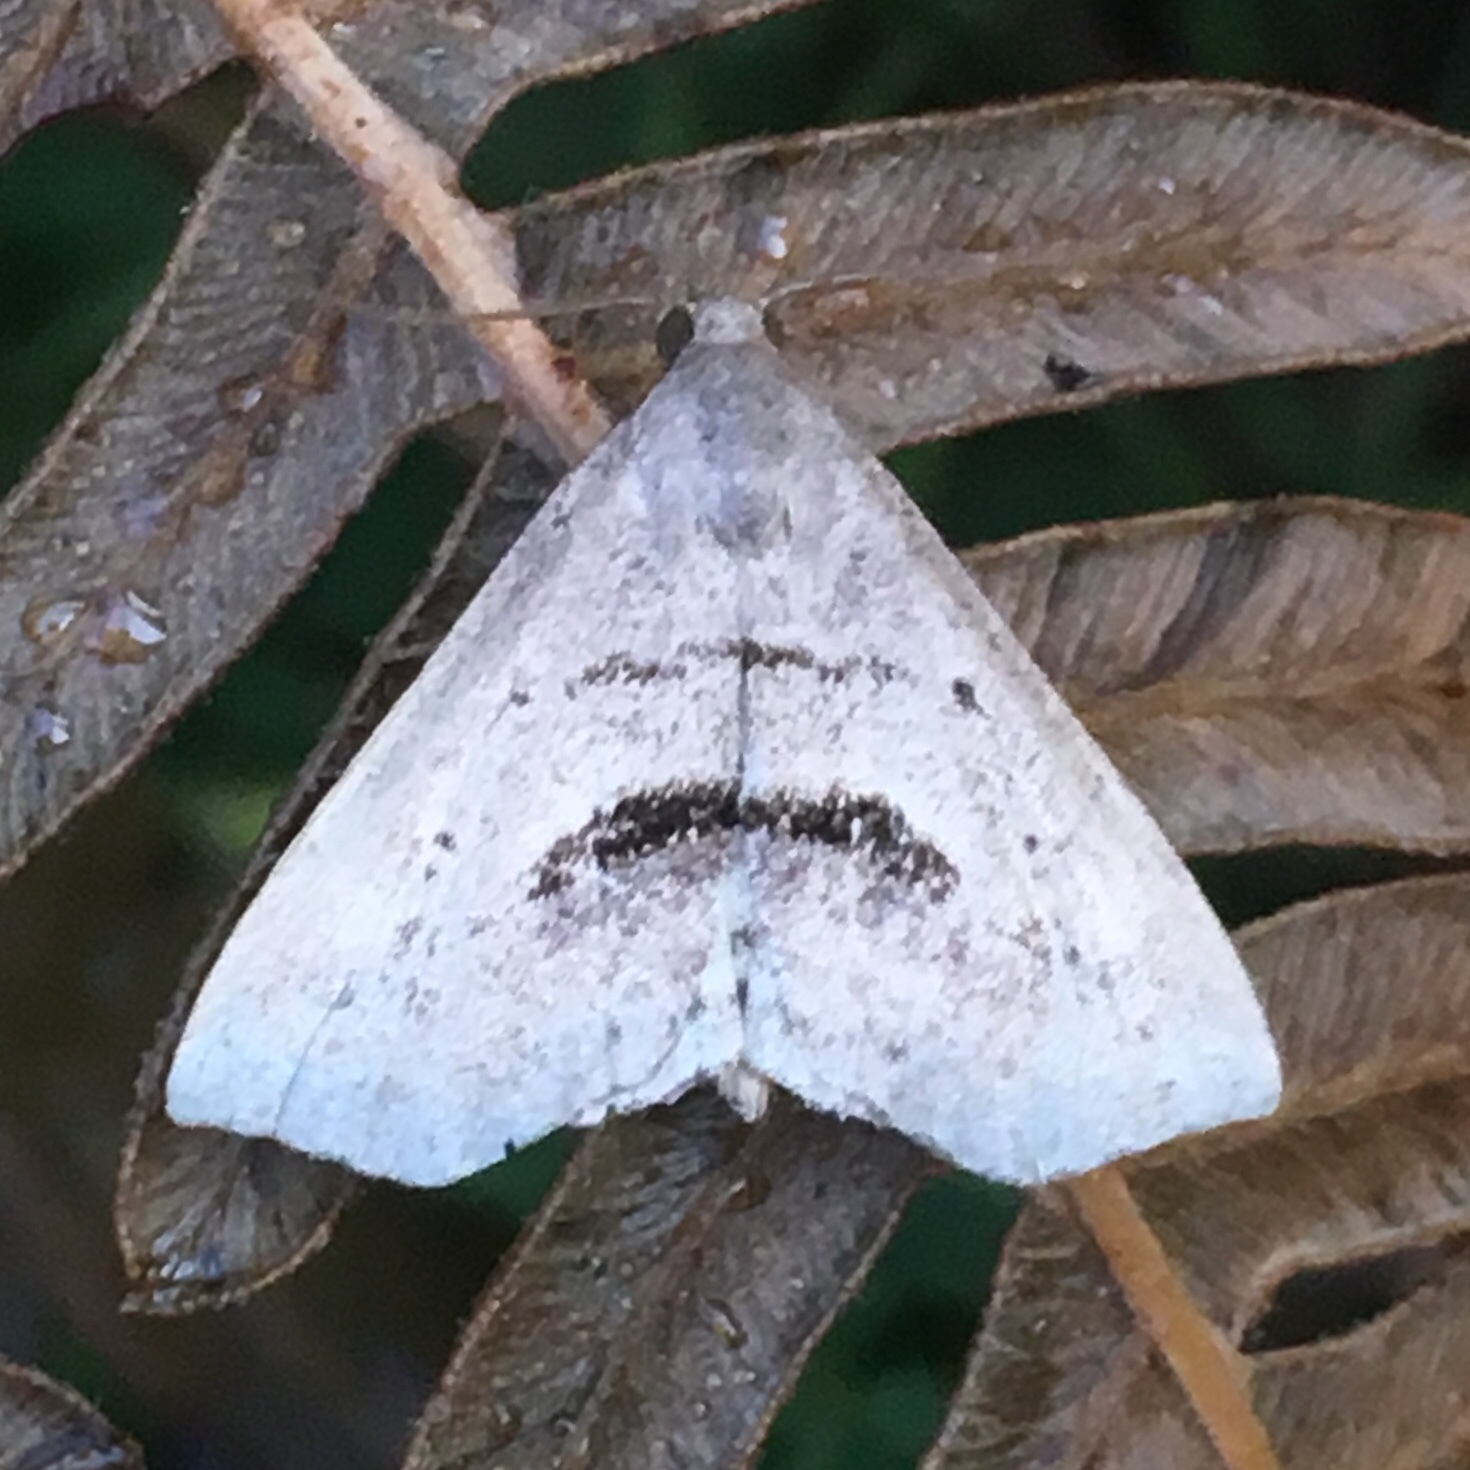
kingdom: Animalia
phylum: Arthropoda
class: Insecta
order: Lepidoptera
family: Erebidae
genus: Spargaloma
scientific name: Spargaloma perditalis
